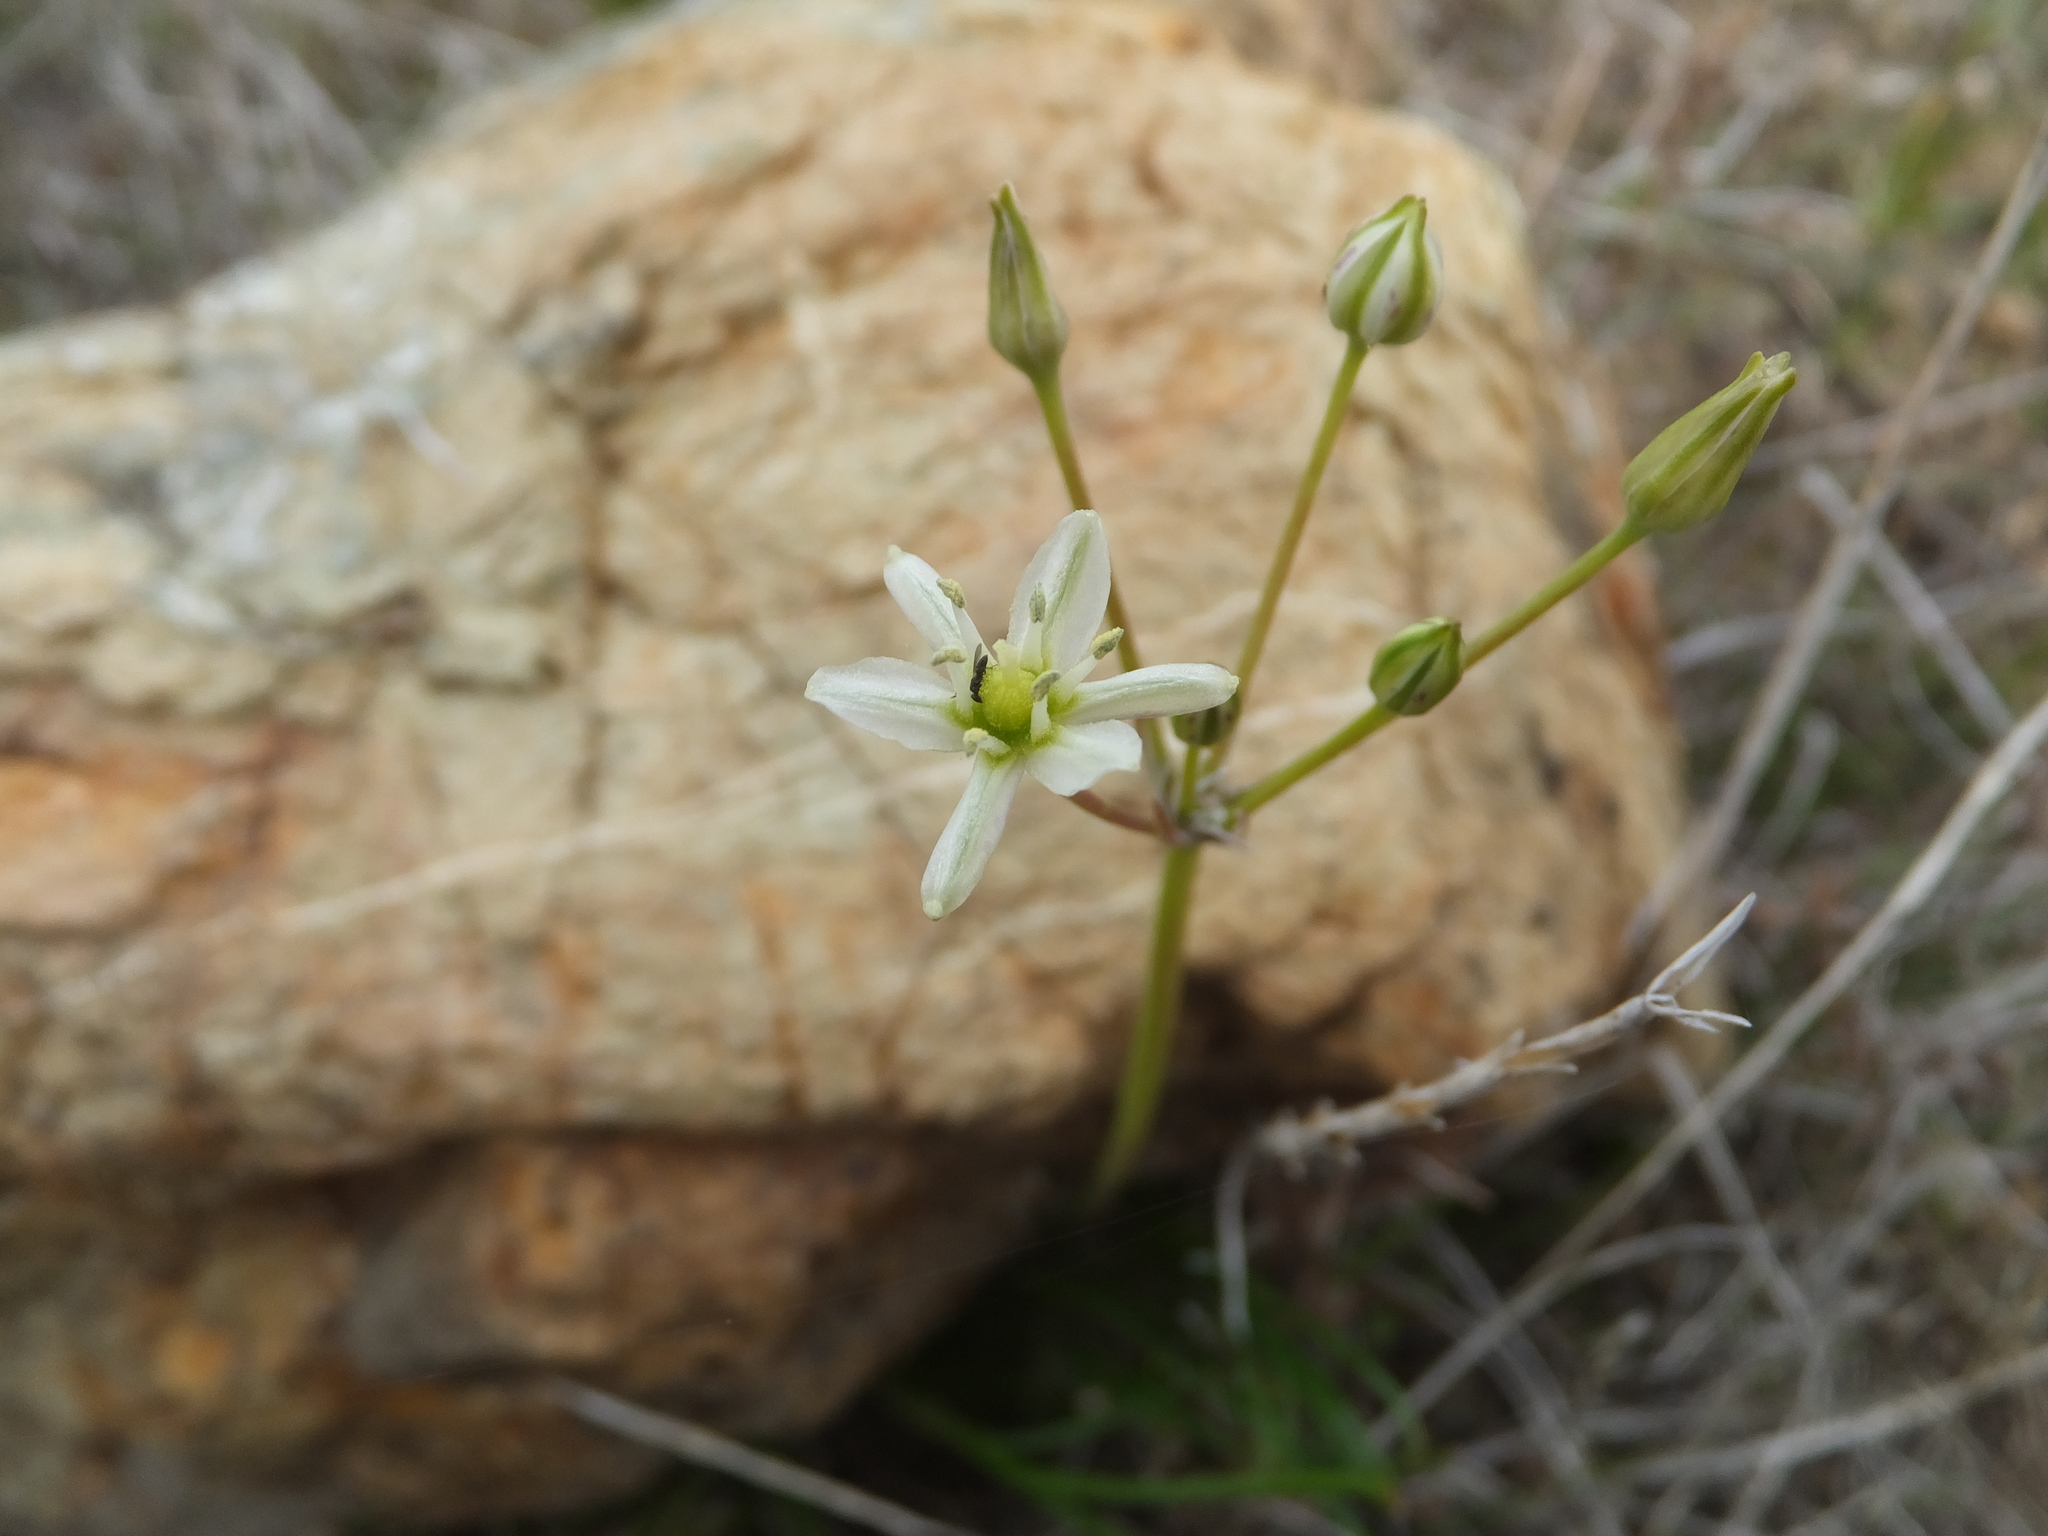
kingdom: Plantae
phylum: Tracheophyta
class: Liliopsida
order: Asparagales
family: Asparagaceae
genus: Muilla
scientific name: Muilla maritima
